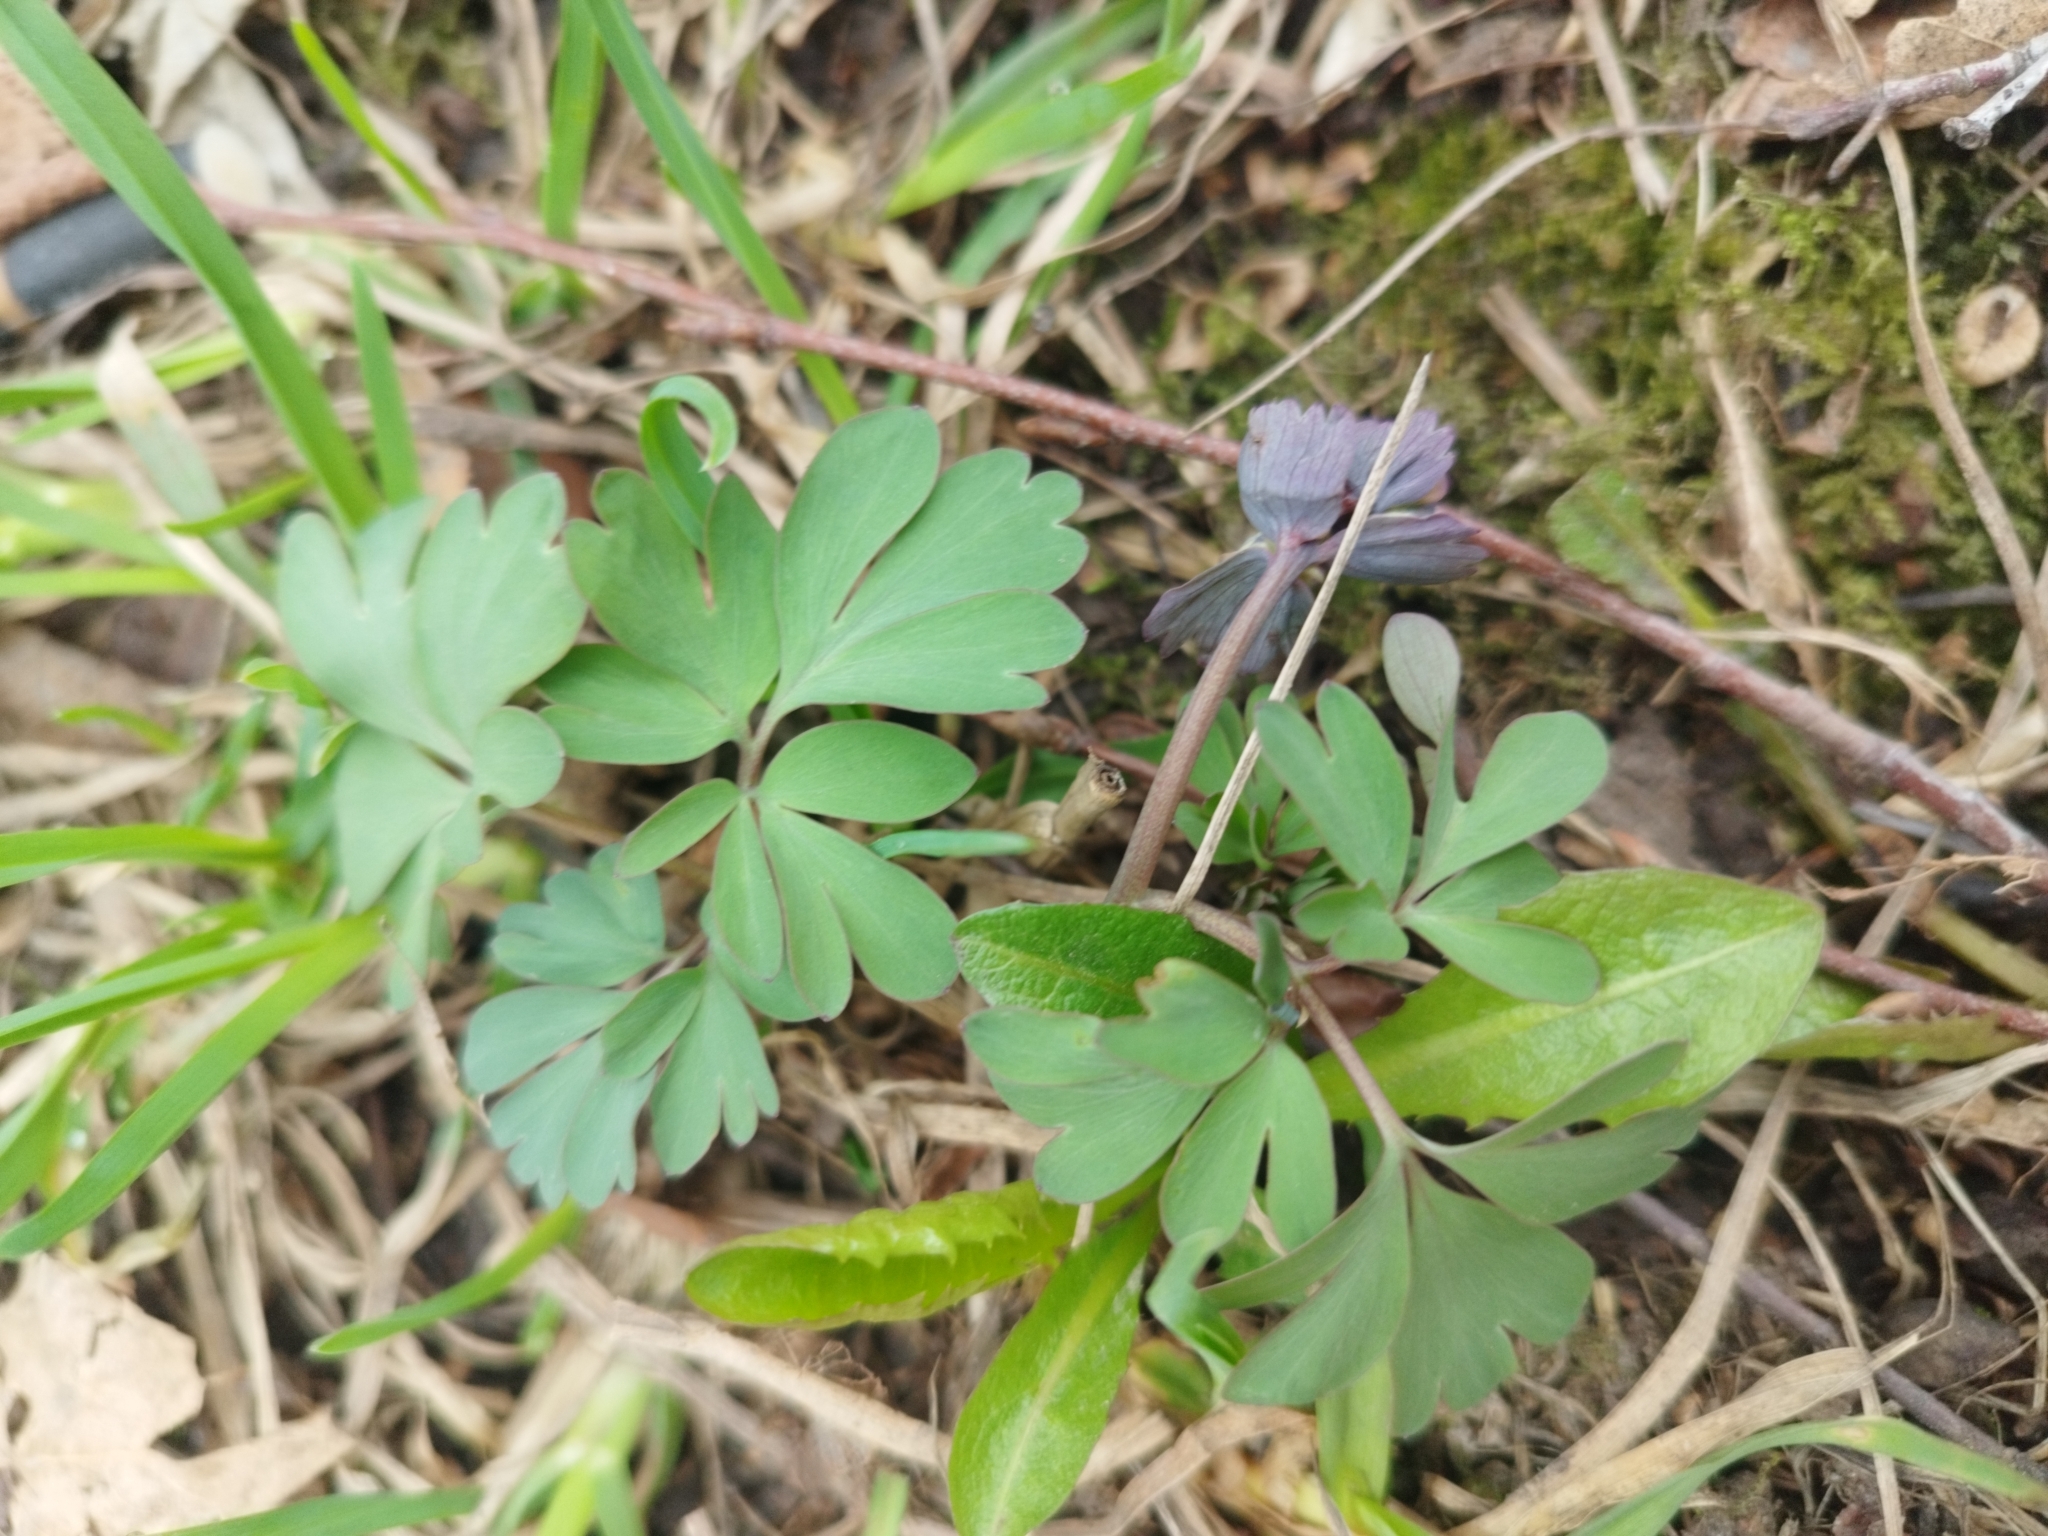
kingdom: Plantae
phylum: Tracheophyta
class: Magnoliopsida
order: Ranunculales
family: Papaveraceae
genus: Corydalis
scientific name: Corydalis solida
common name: Bird-in-a-bush
